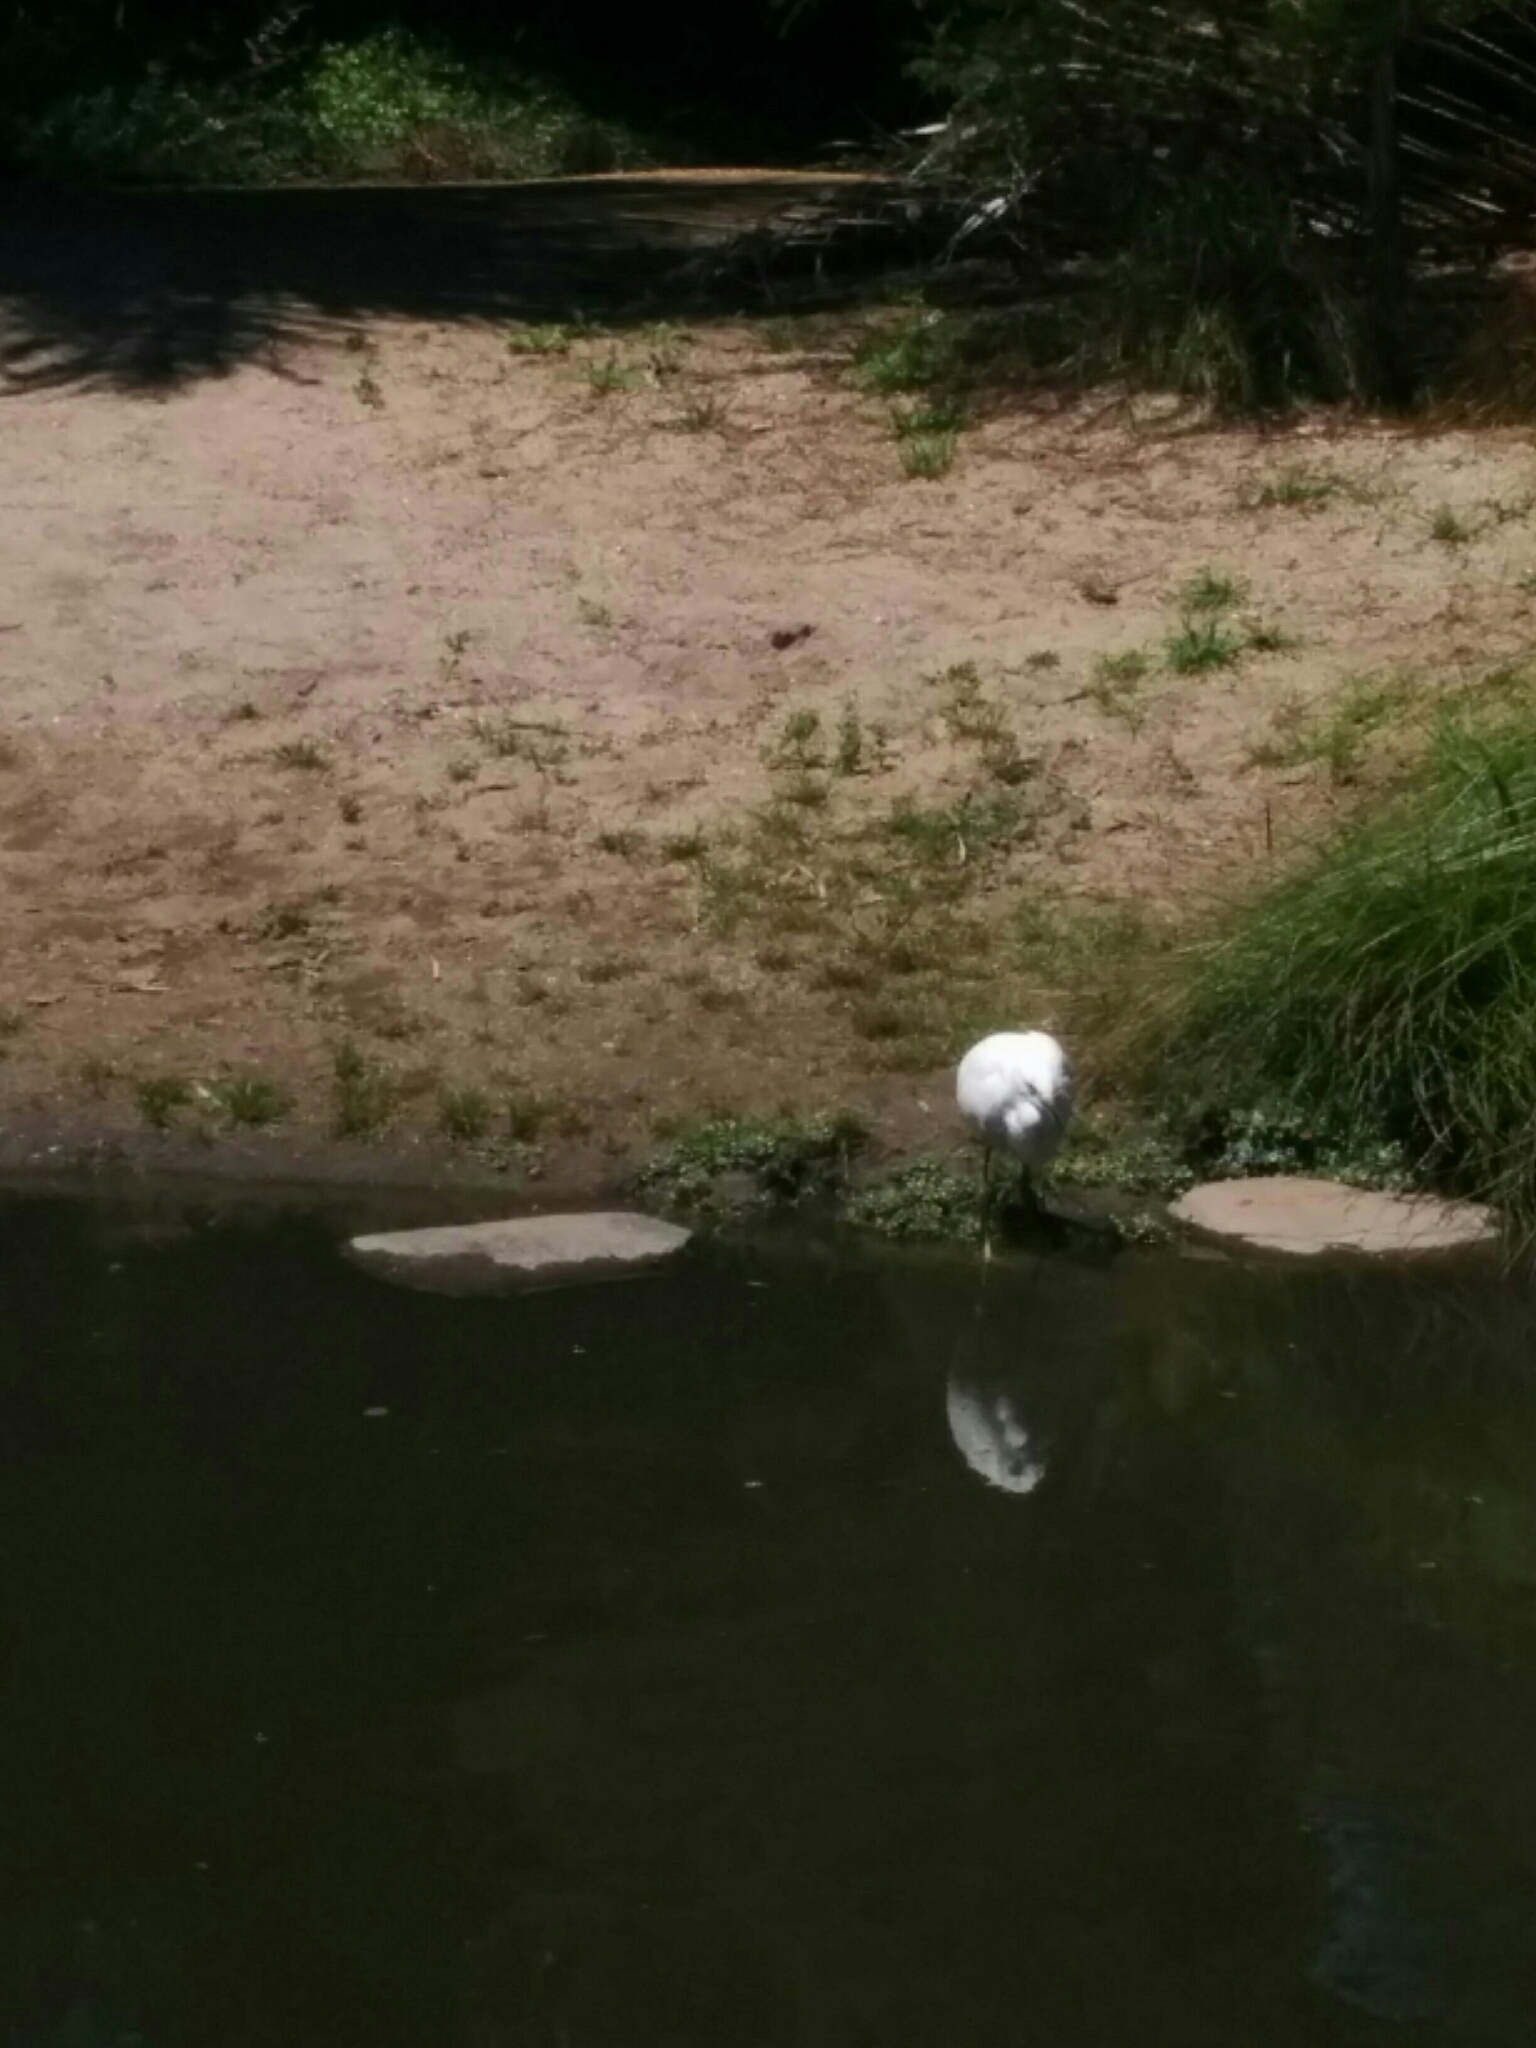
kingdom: Animalia
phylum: Chordata
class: Aves
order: Pelecaniformes
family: Ardeidae
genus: Egretta
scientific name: Egretta thula
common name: Snowy egret
